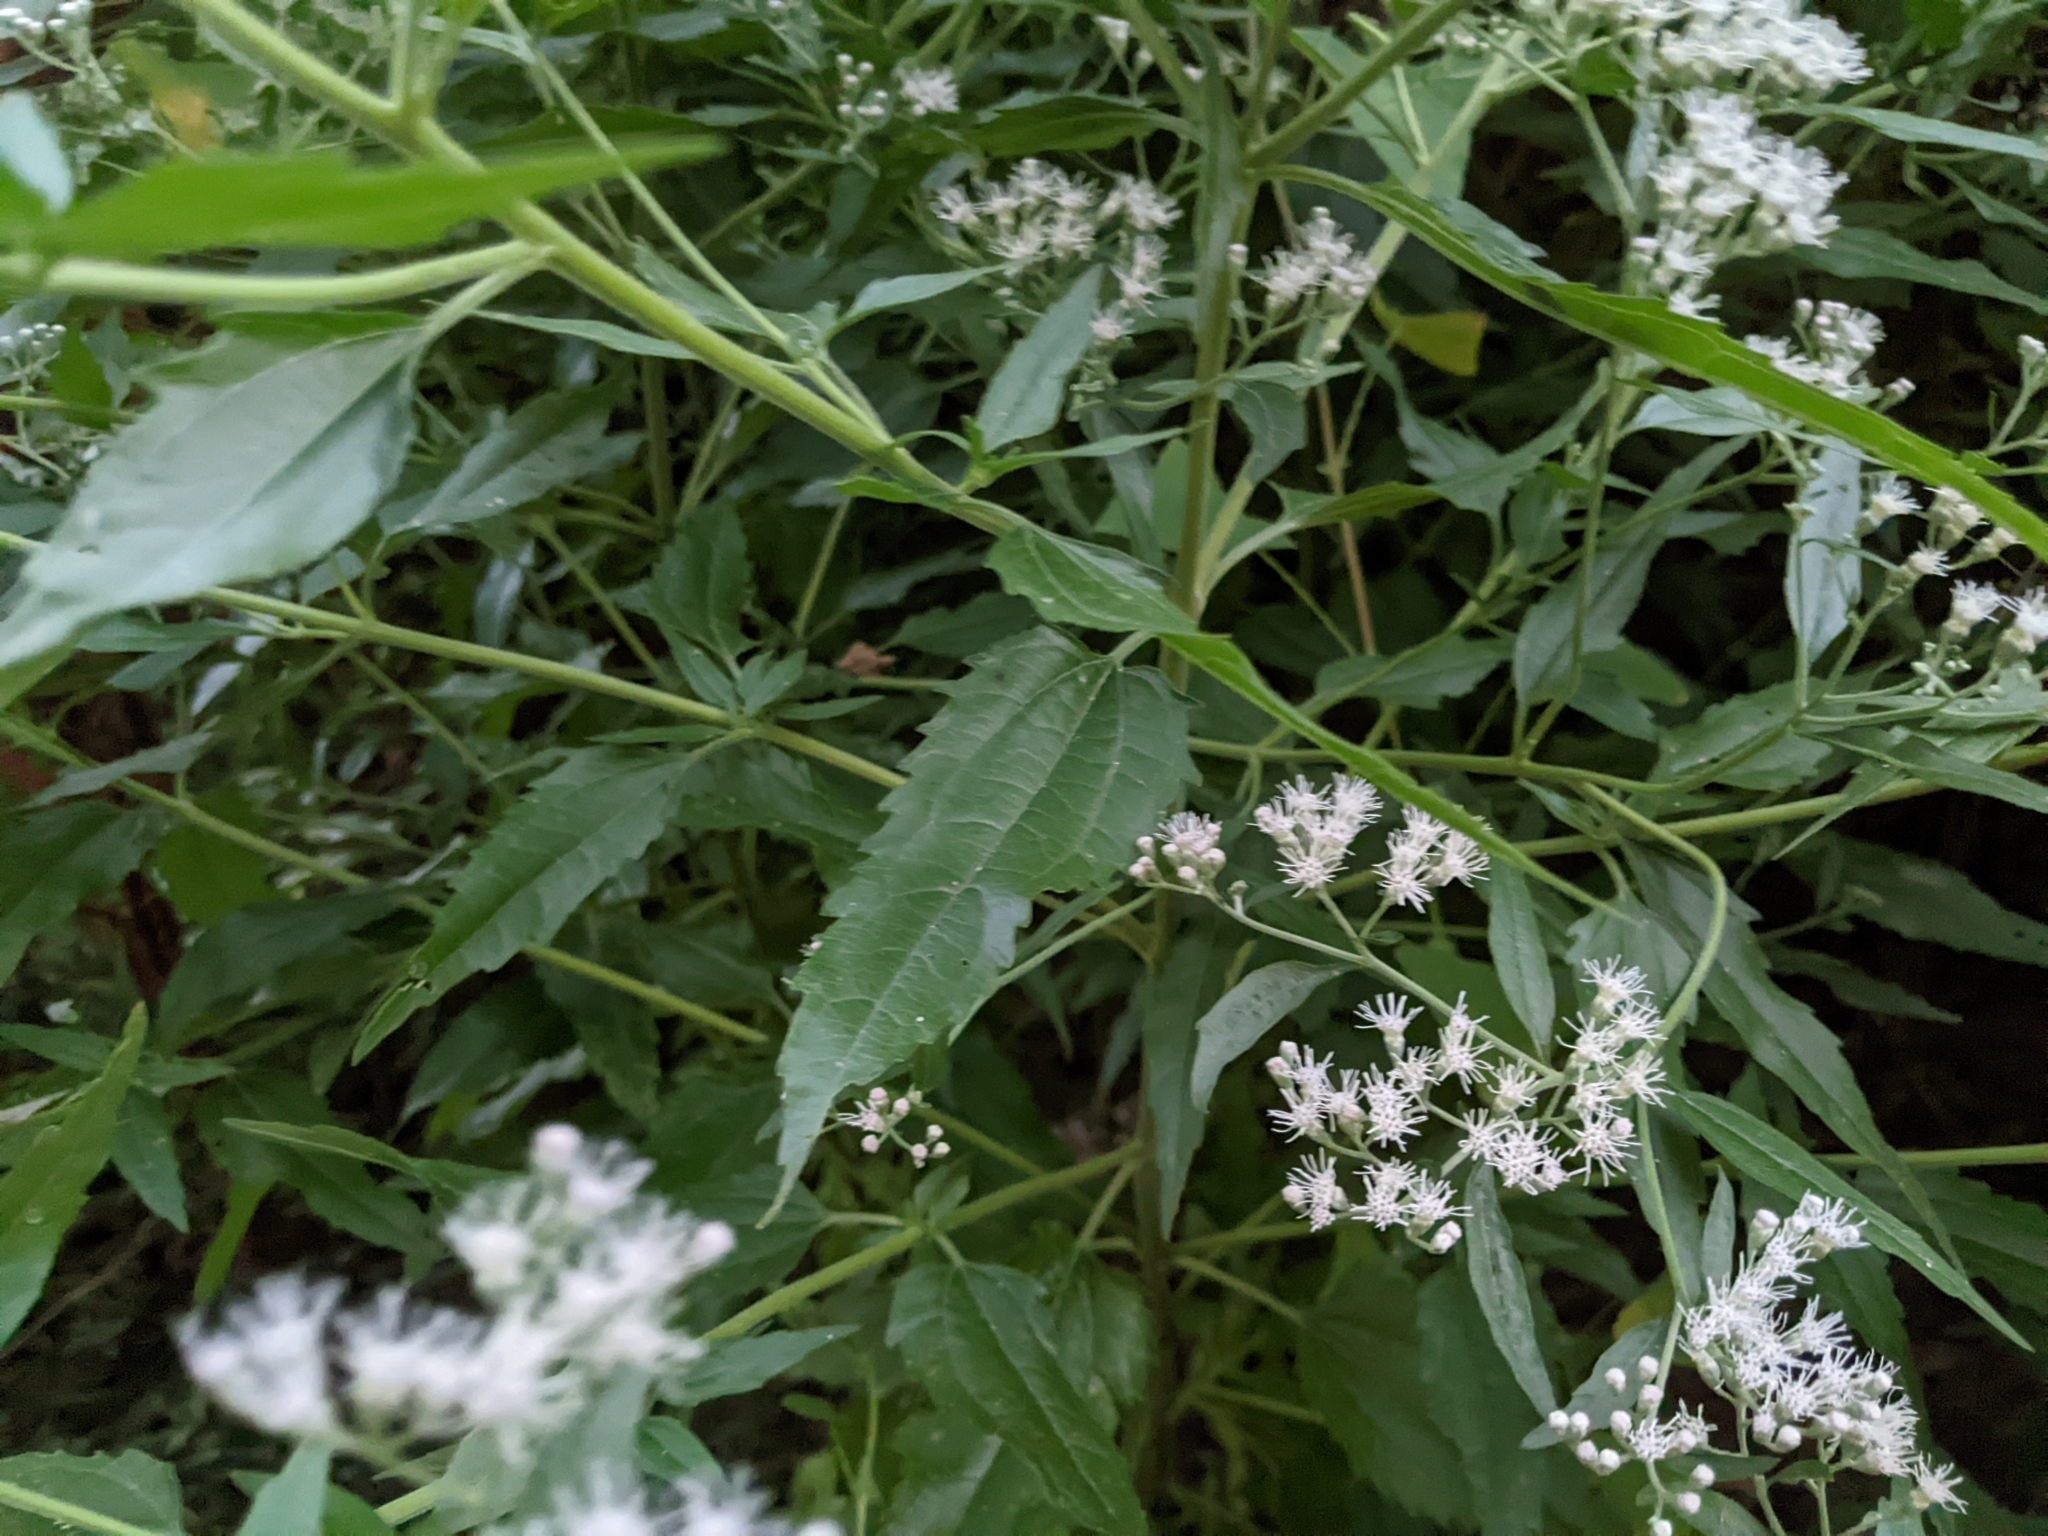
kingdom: Plantae
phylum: Tracheophyta
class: Magnoliopsida
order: Asterales
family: Asteraceae
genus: Eupatorium
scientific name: Eupatorium serotinum
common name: Late boneset
